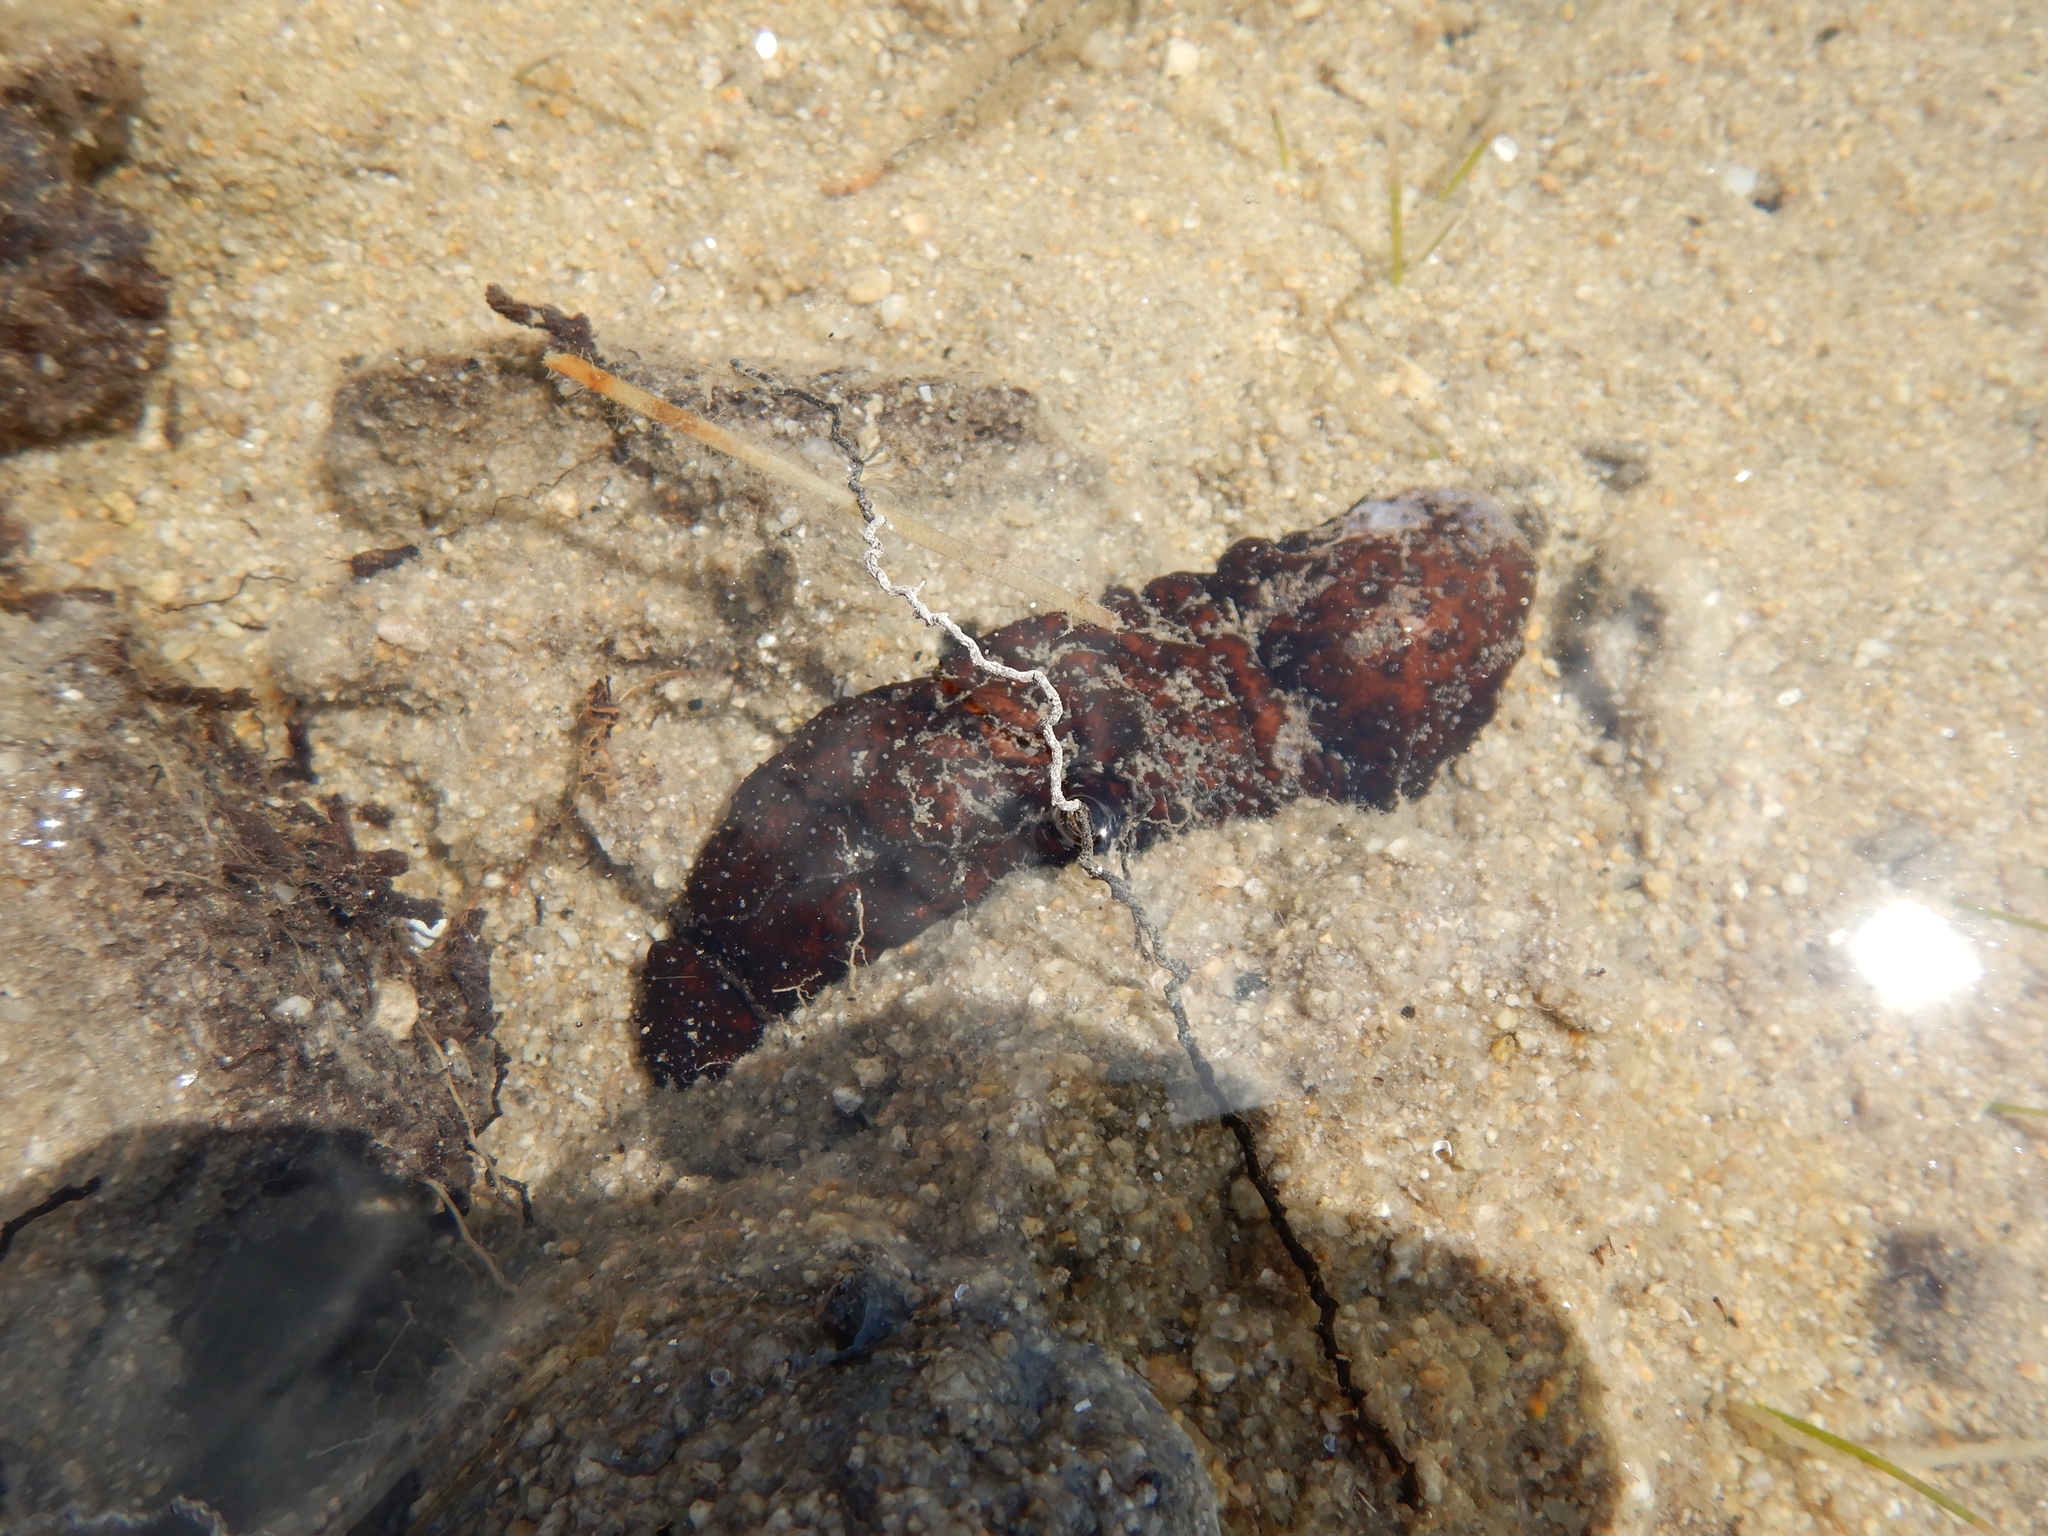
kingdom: Animalia
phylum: Echinodermata
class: Holothuroidea
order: Holothuriida
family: Holothuriidae
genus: Holothuria
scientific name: Holothuria poli
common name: White spot cucumber
